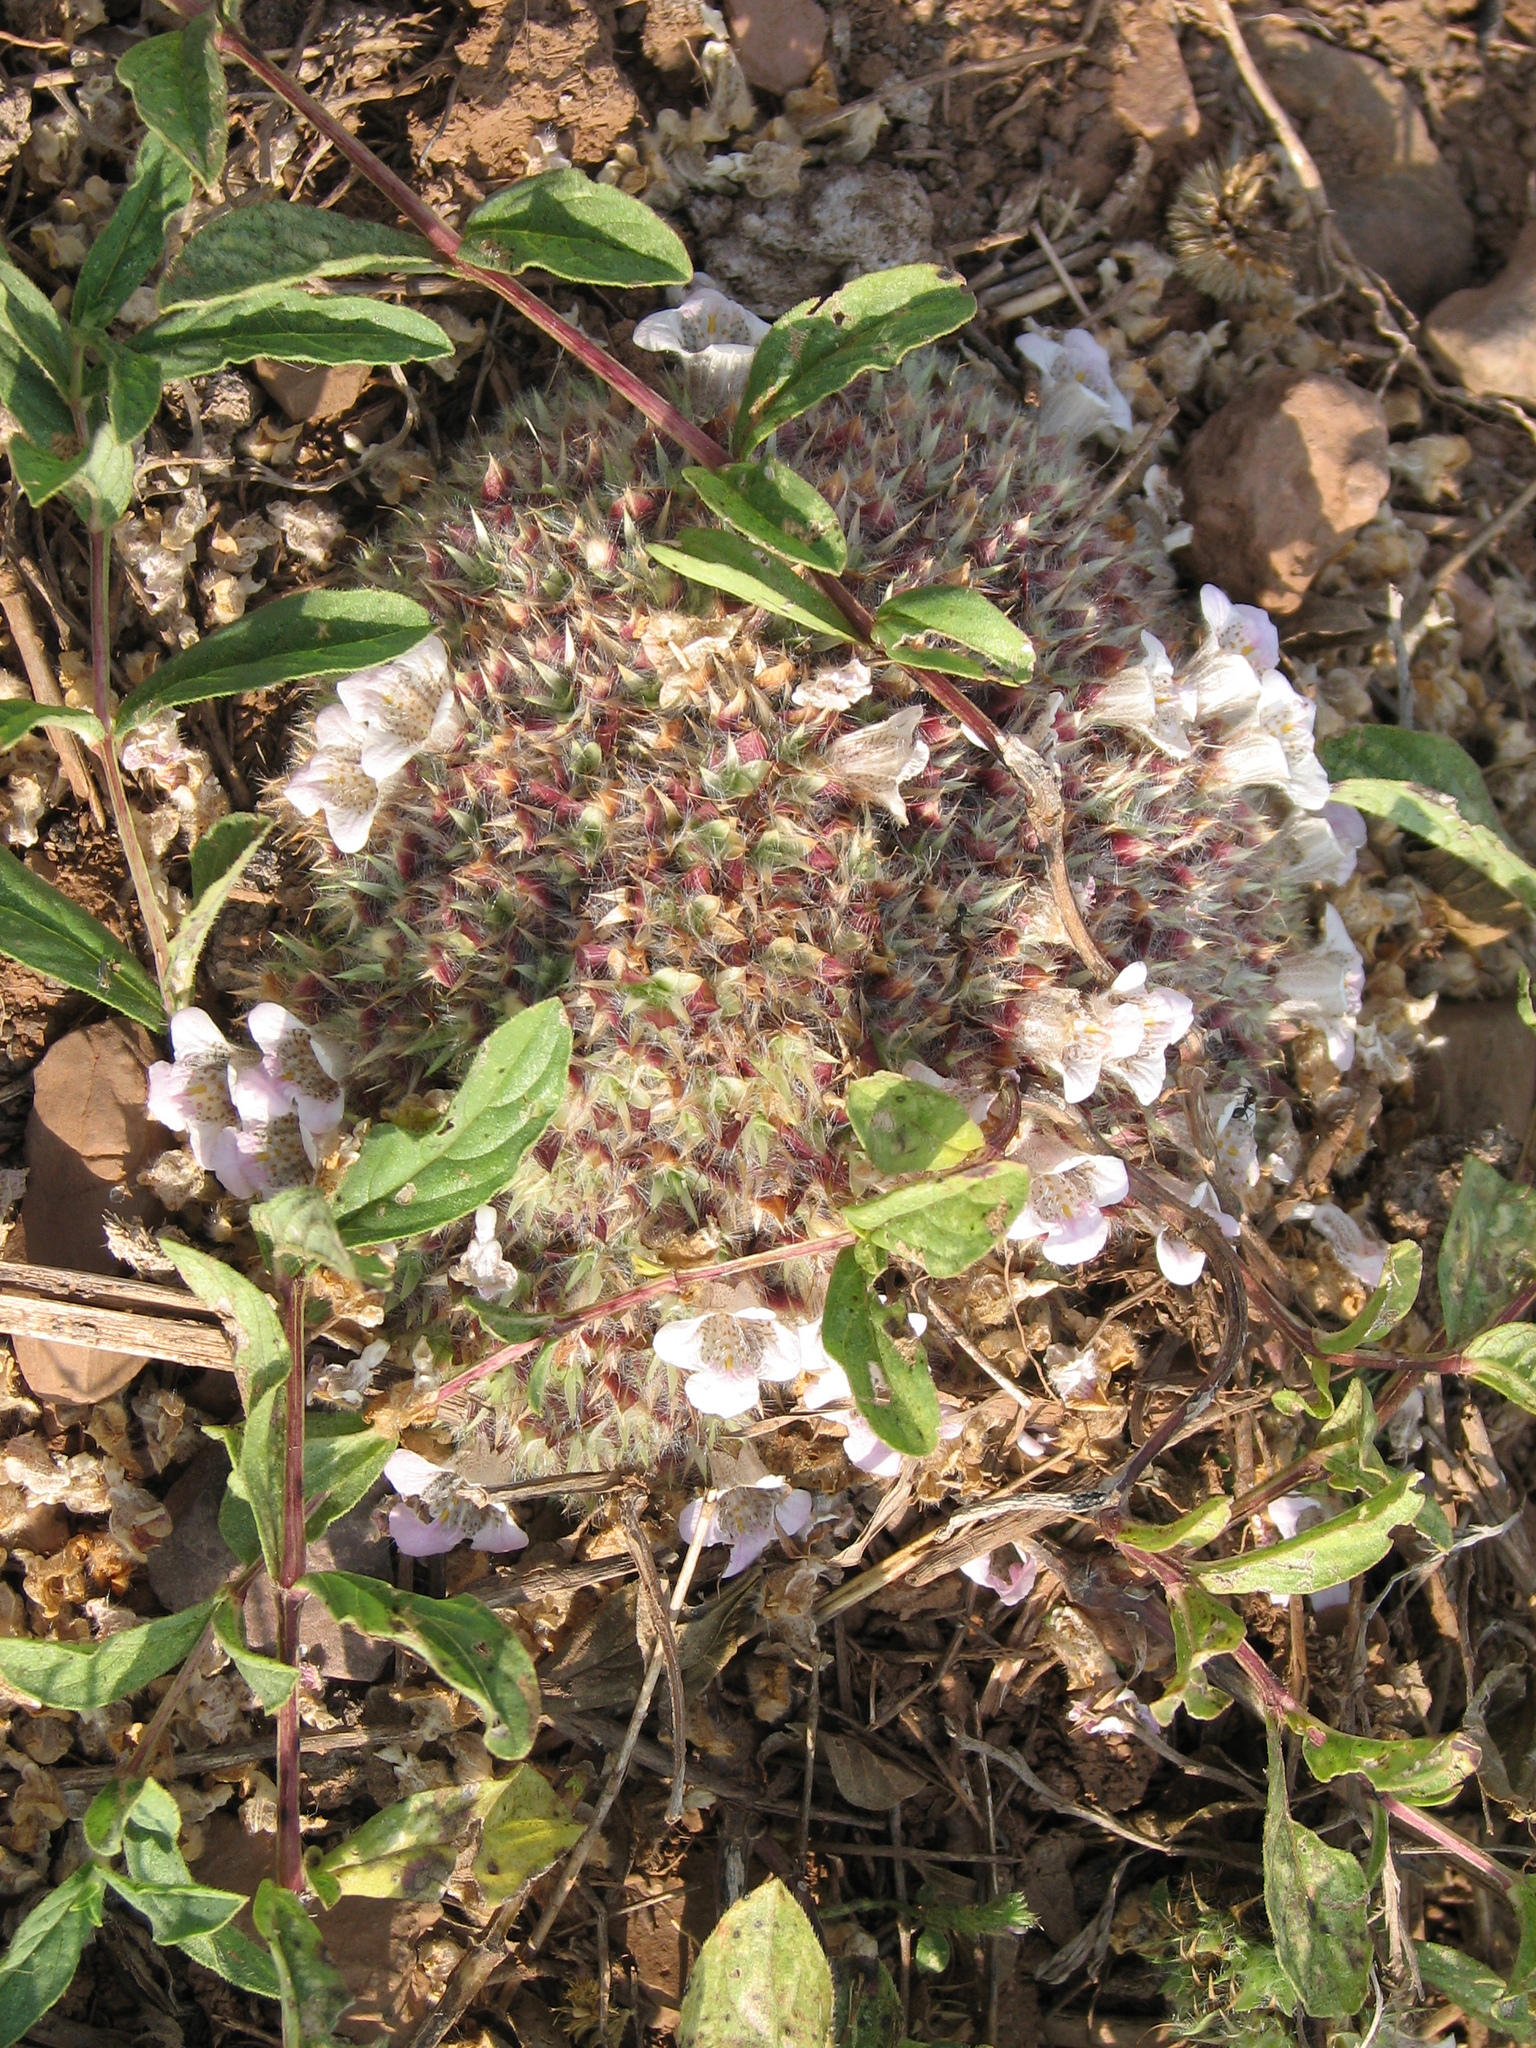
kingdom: Plantae
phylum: Tracheophyta
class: Magnoliopsida
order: Lamiales
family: Acanthaceae
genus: Lepidagathis
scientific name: Lepidagathis cristata
